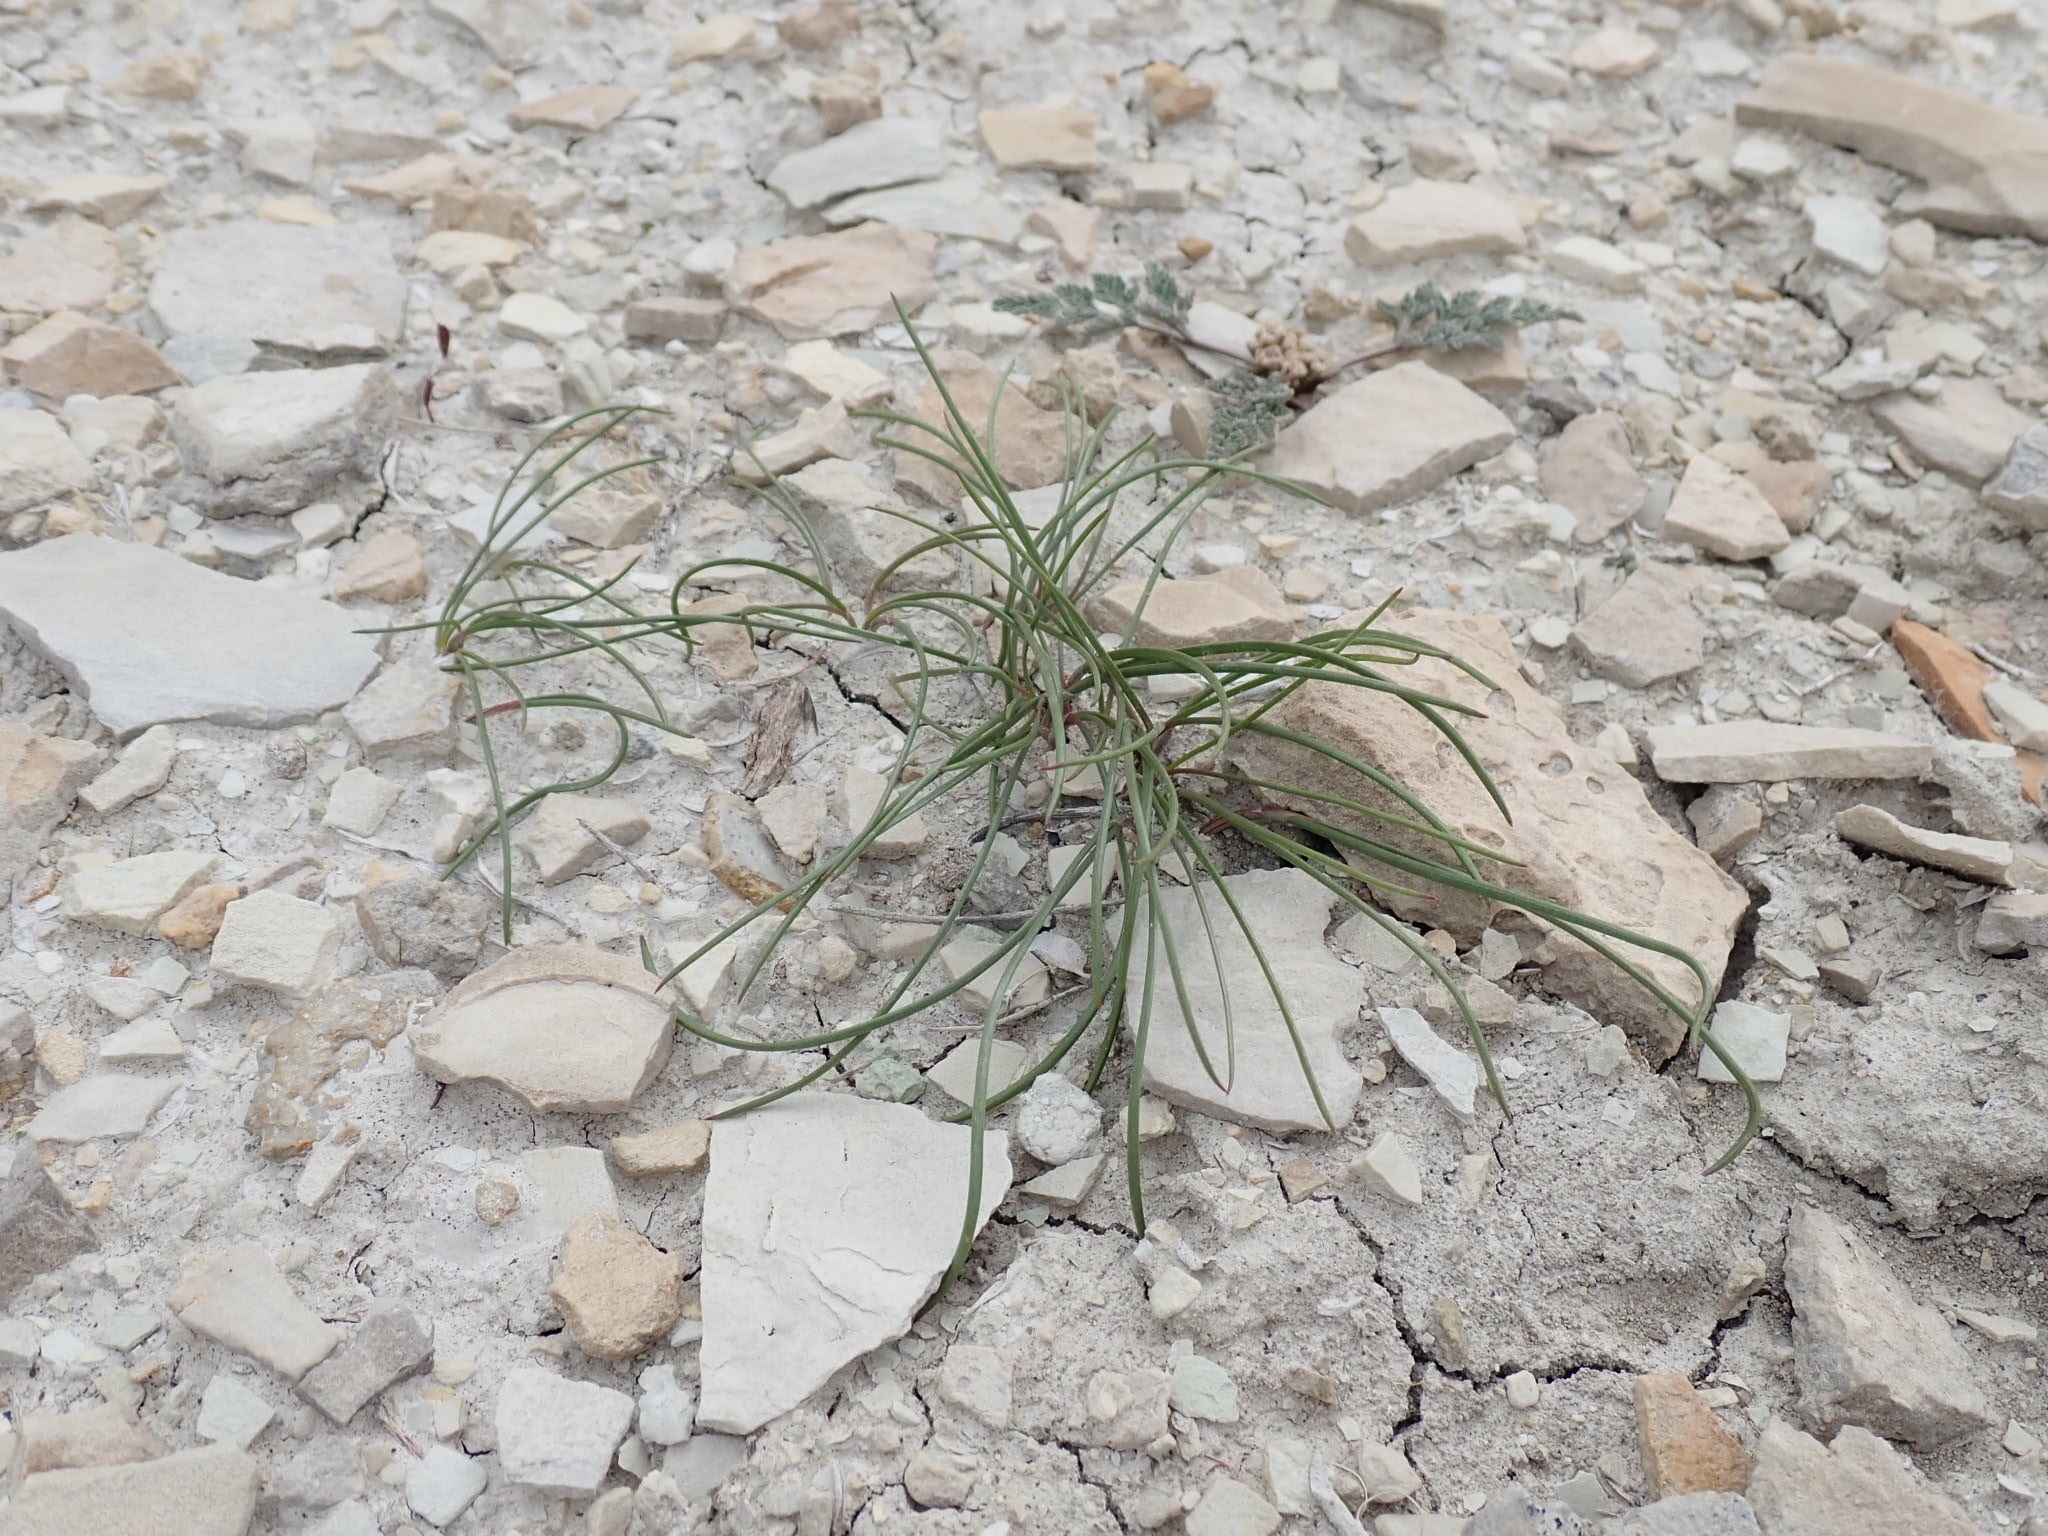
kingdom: Plantae
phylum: Tracheophyta
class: Liliopsida
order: Asparagales
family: Amaryllidaceae
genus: Allium
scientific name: Allium textile
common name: Prairie onion
